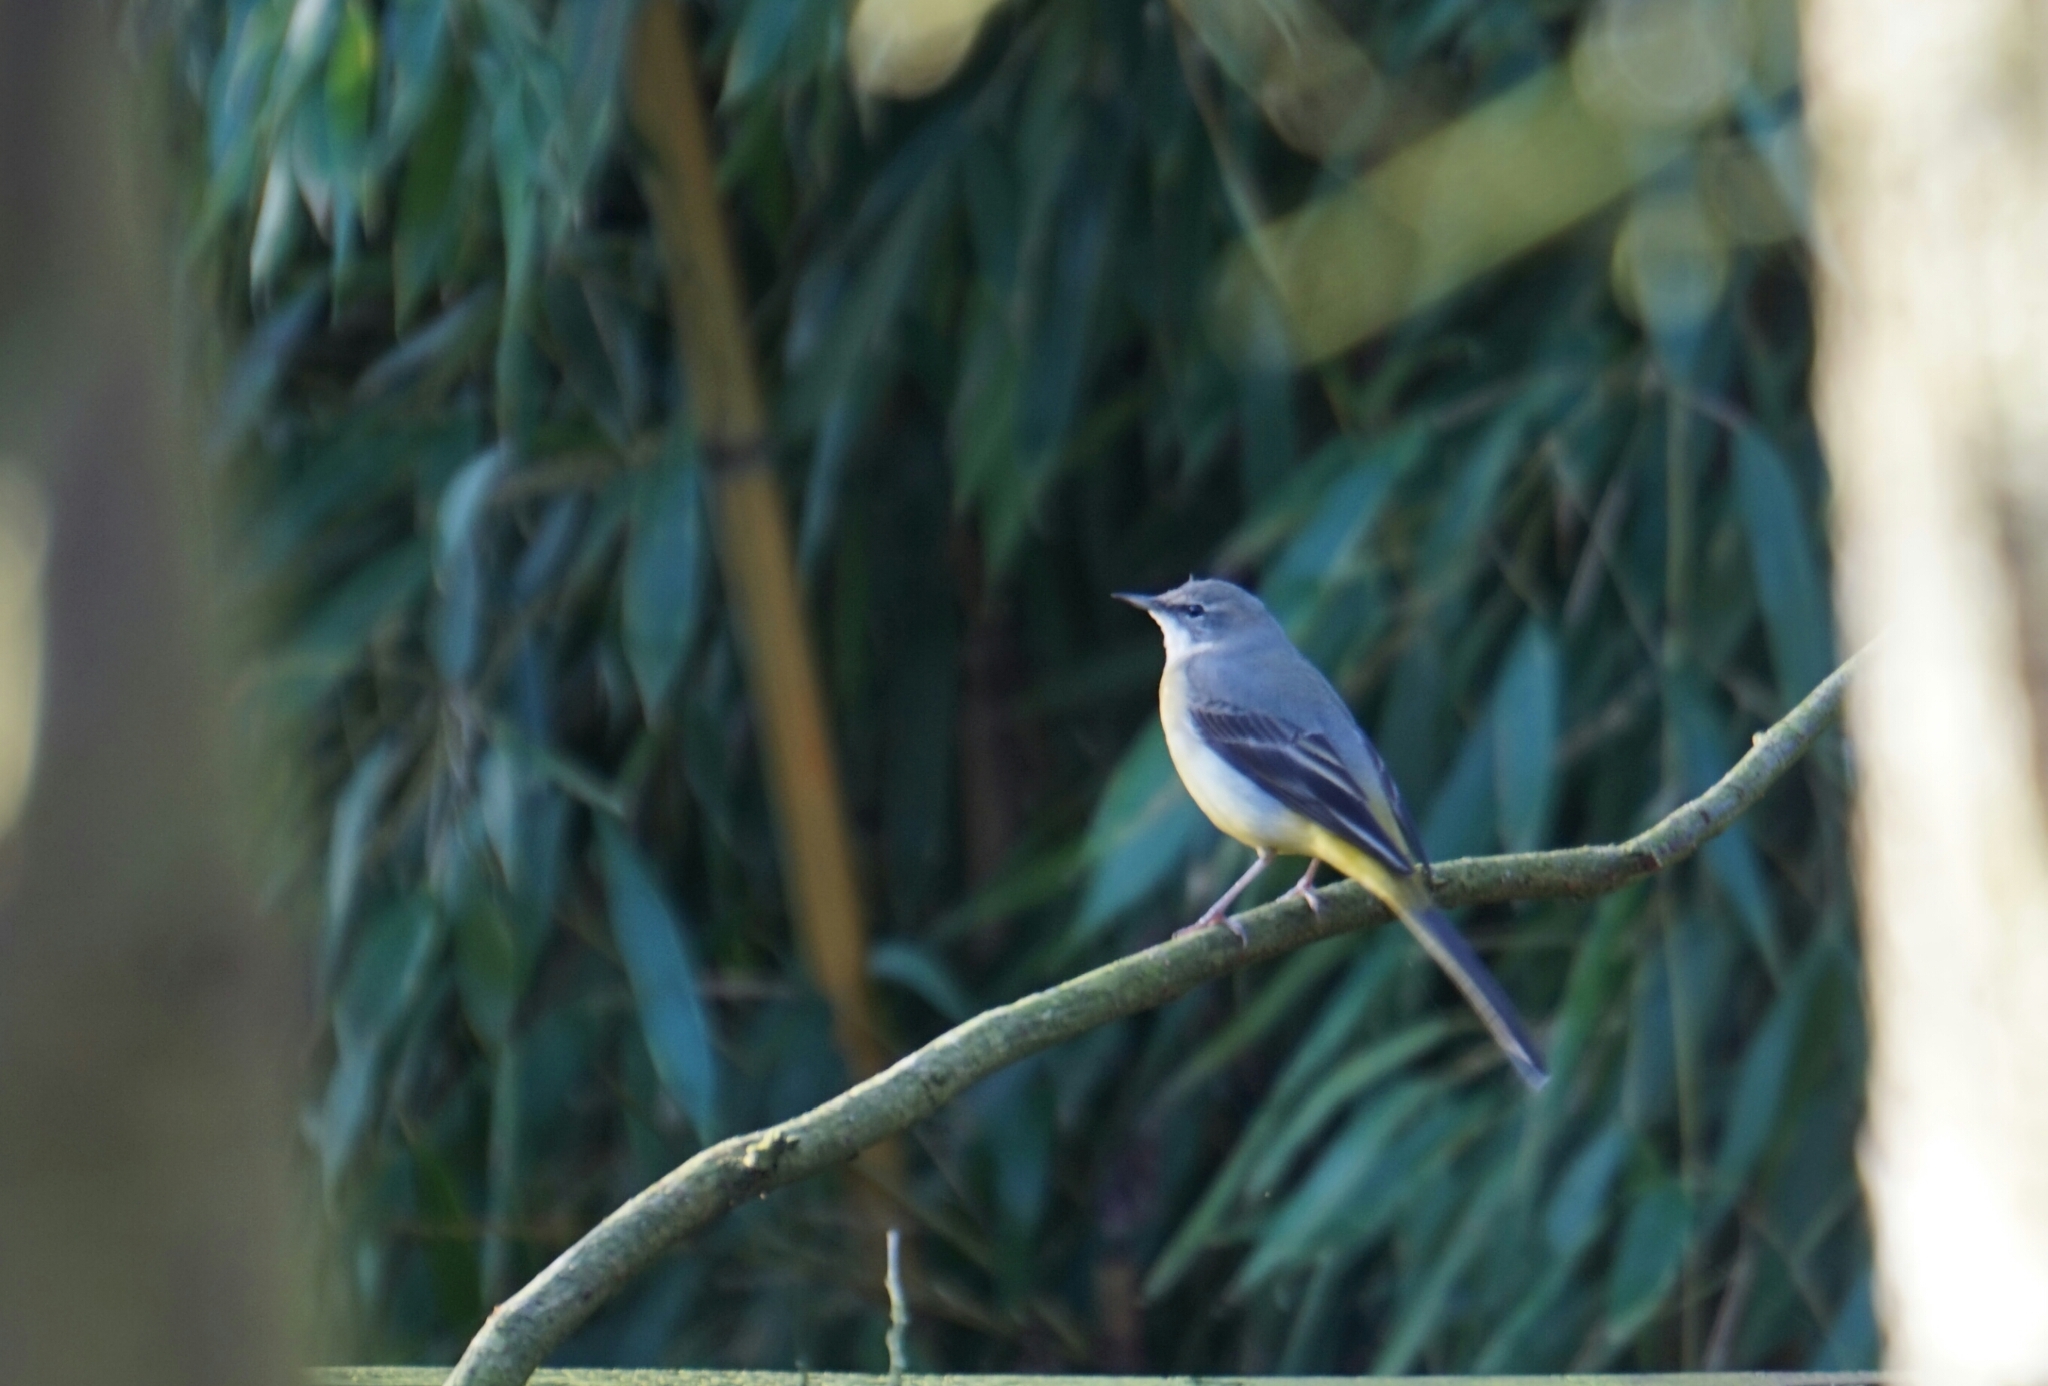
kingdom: Animalia
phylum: Chordata
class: Aves
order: Passeriformes
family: Motacillidae
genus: Motacilla
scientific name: Motacilla cinerea
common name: Grey wagtail
